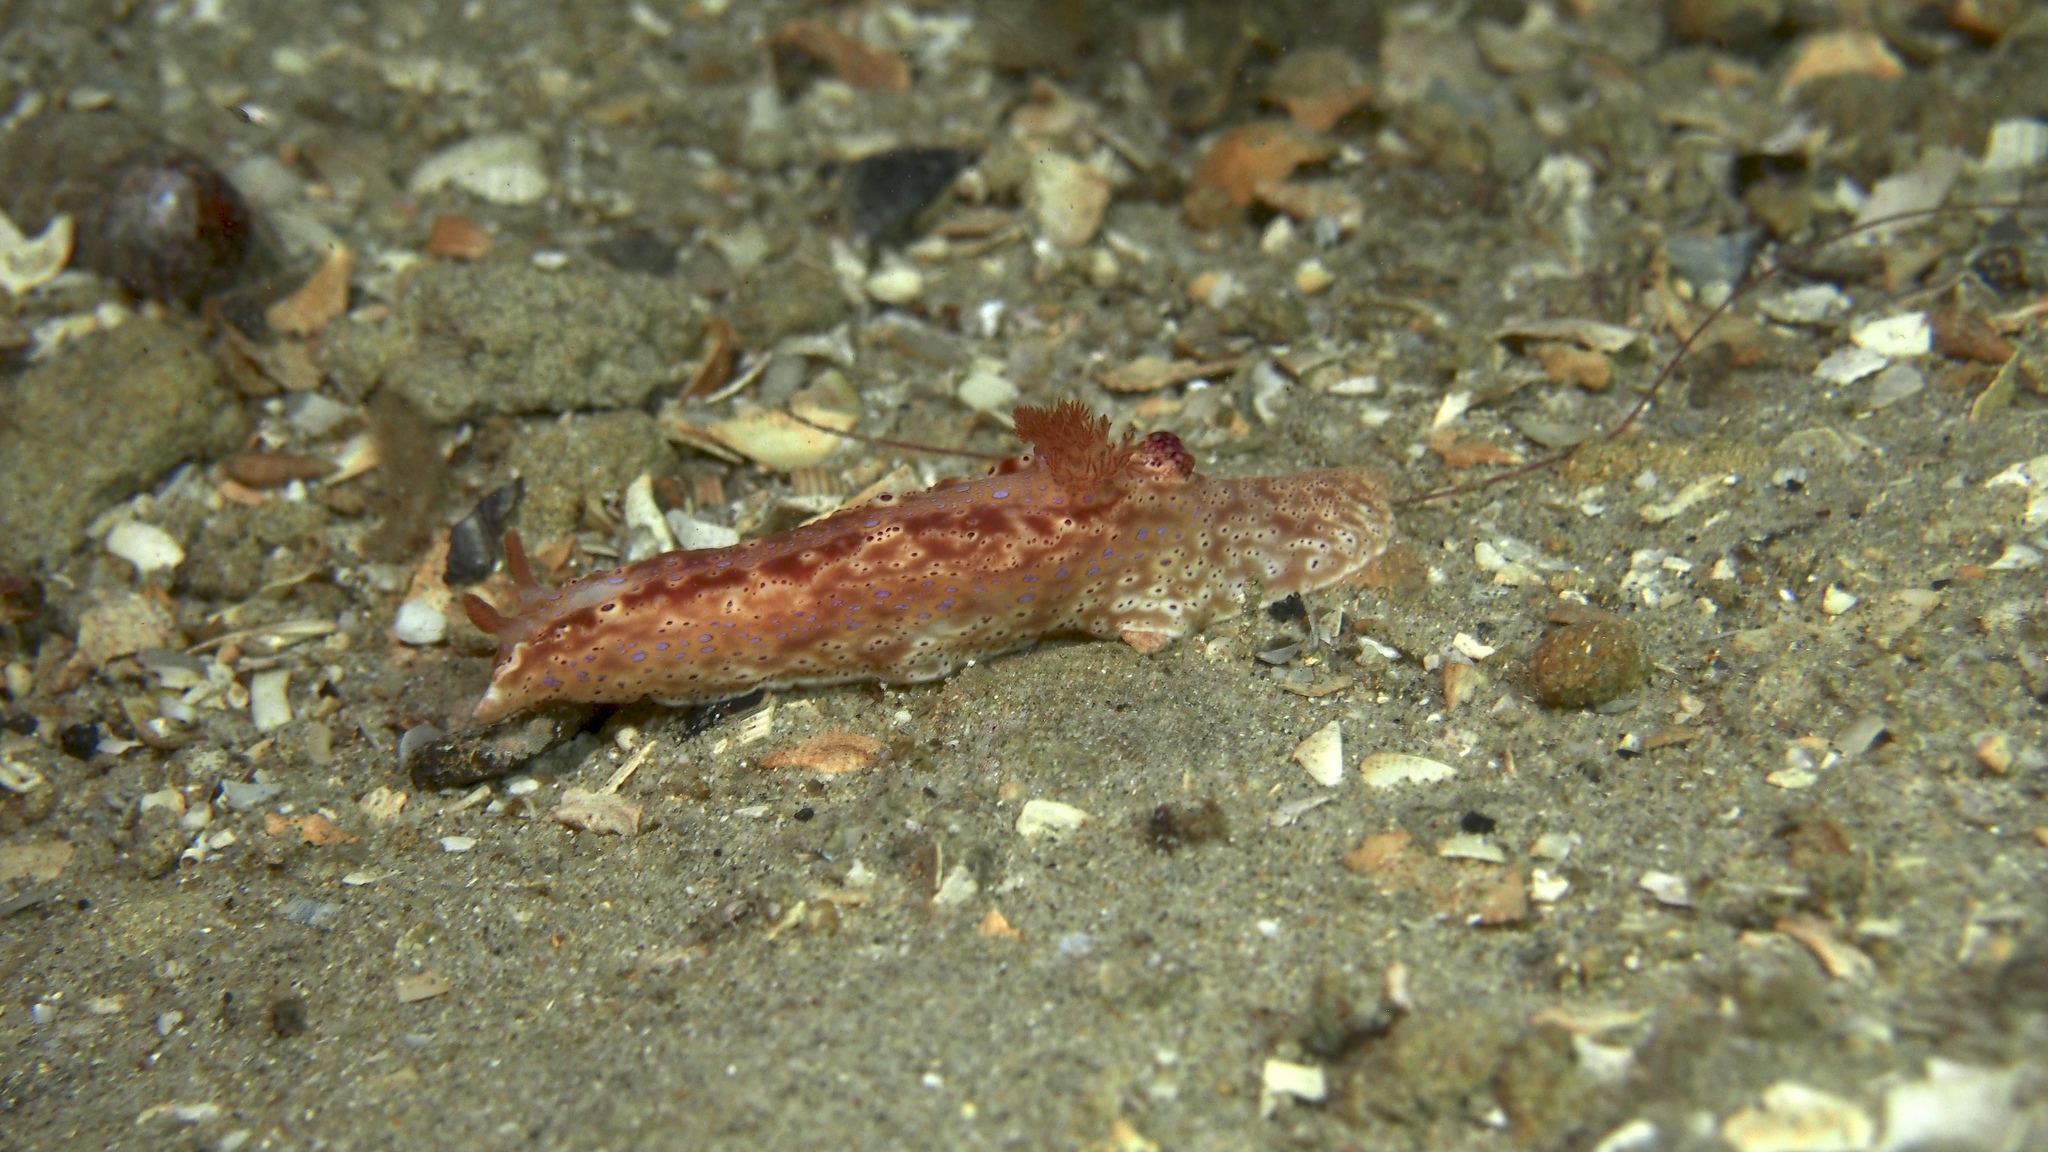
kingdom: Animalia
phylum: Mollusca
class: Gastropoda
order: Nudibranchia
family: Chromodorididae
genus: Ceratosoma
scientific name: Ceratosoma brevicaudatum
